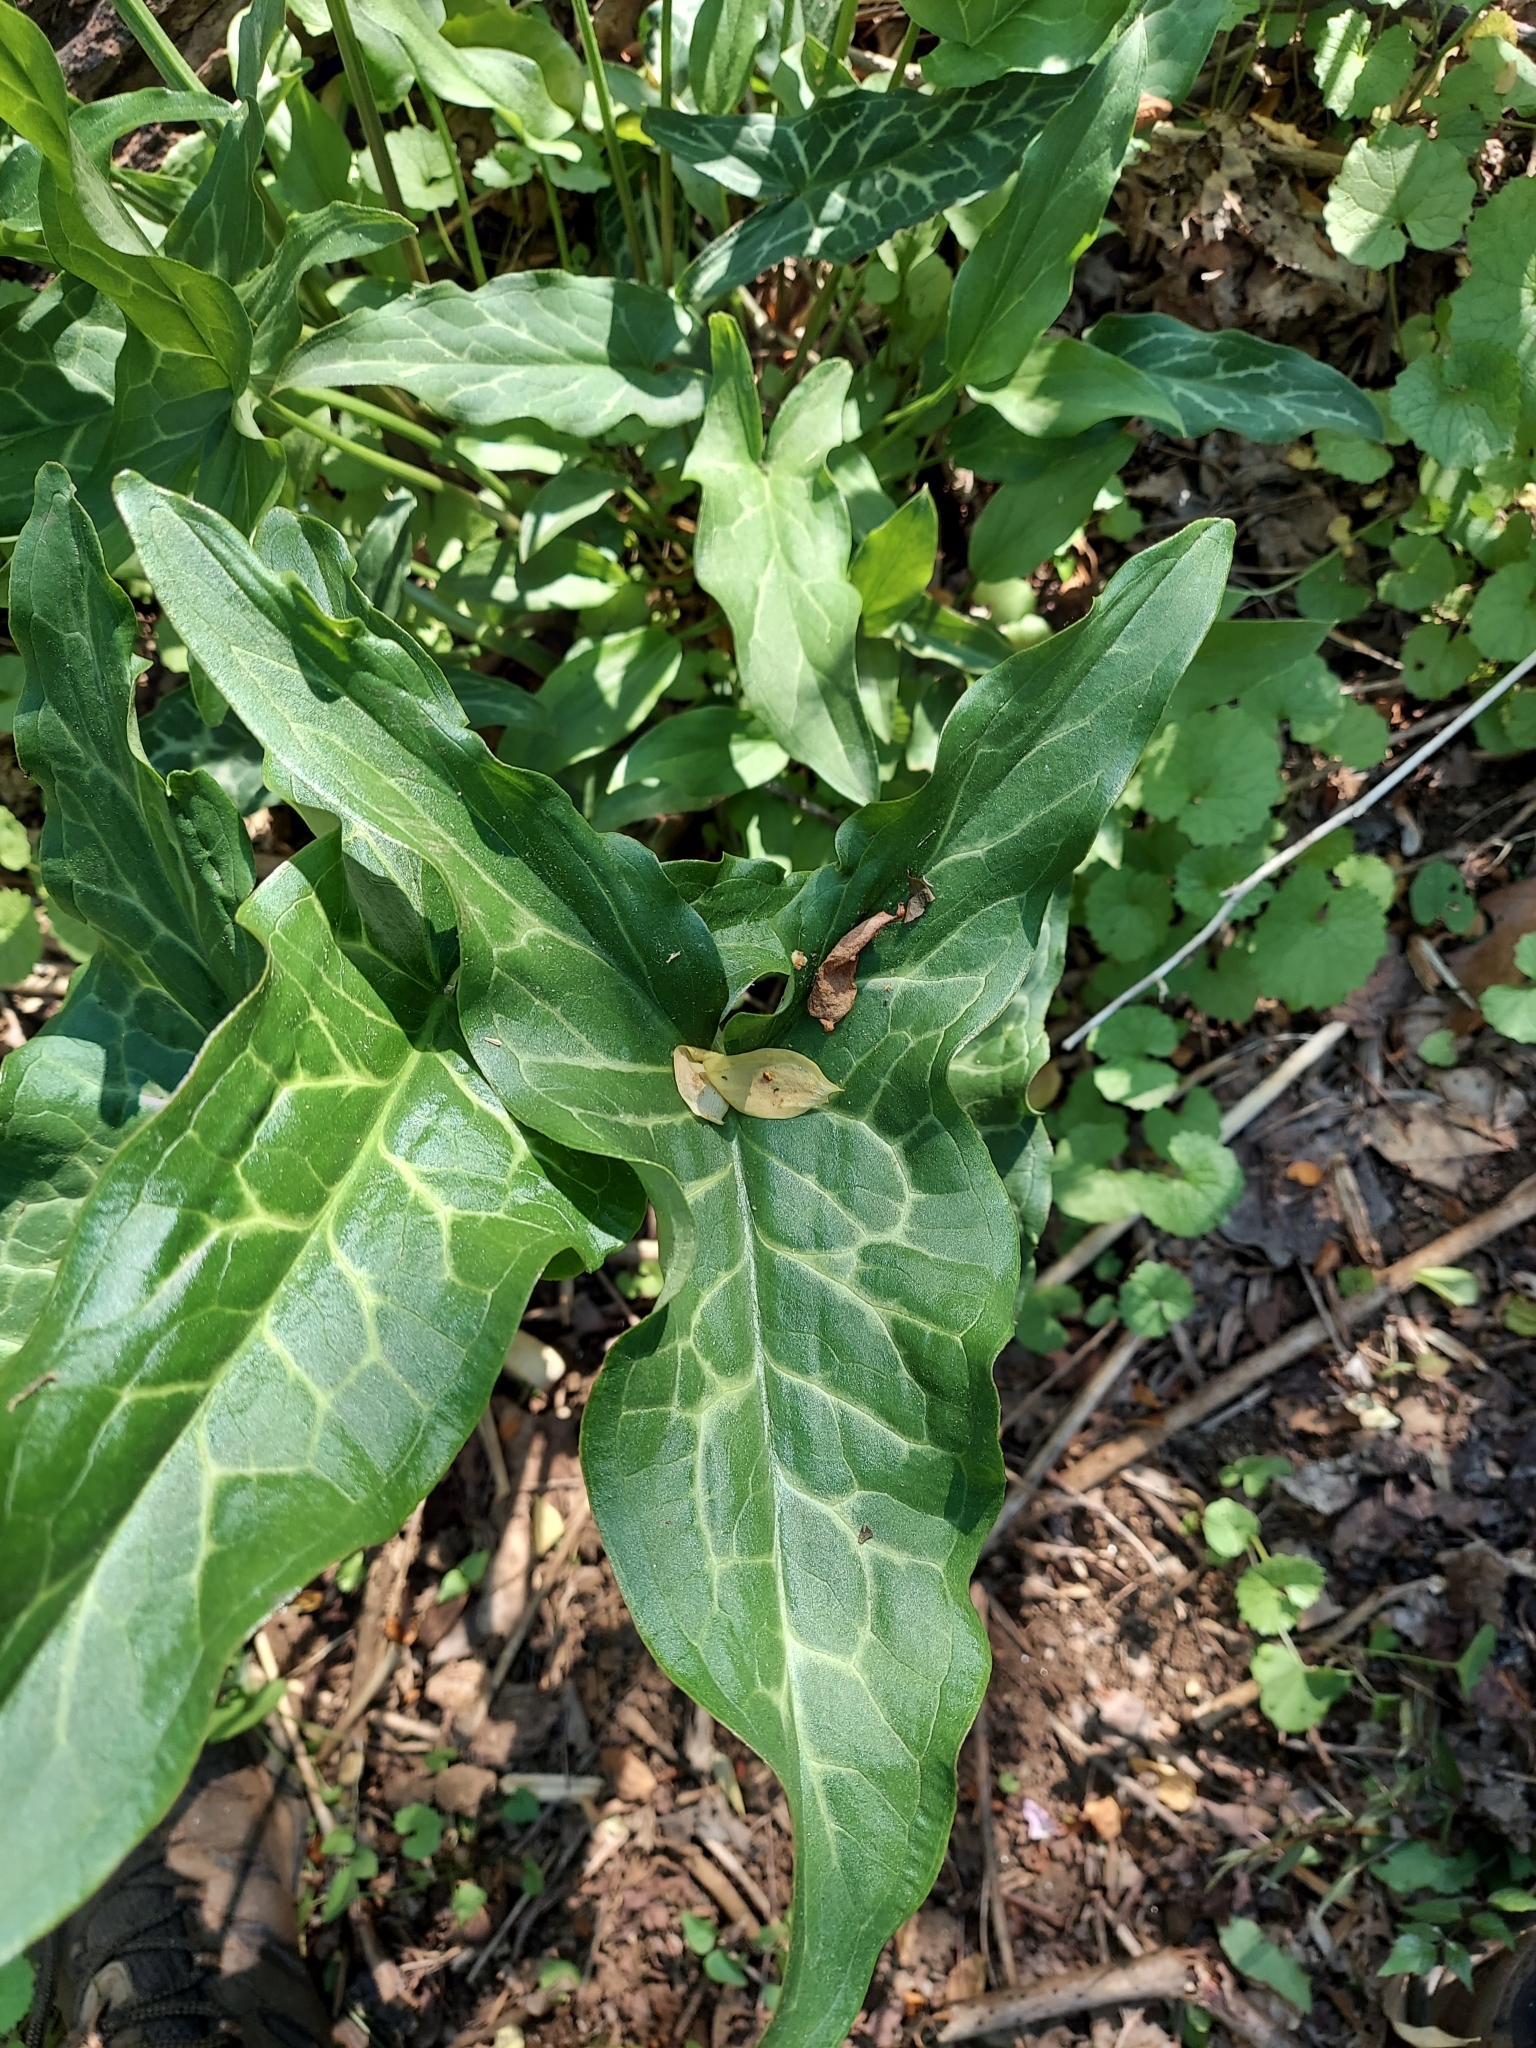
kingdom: Plantae
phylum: Tracheophyta
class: Liliopsida
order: Alismatales
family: Araceae
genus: Arum
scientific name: Arum italicum
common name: Italian lords-and-ladies
